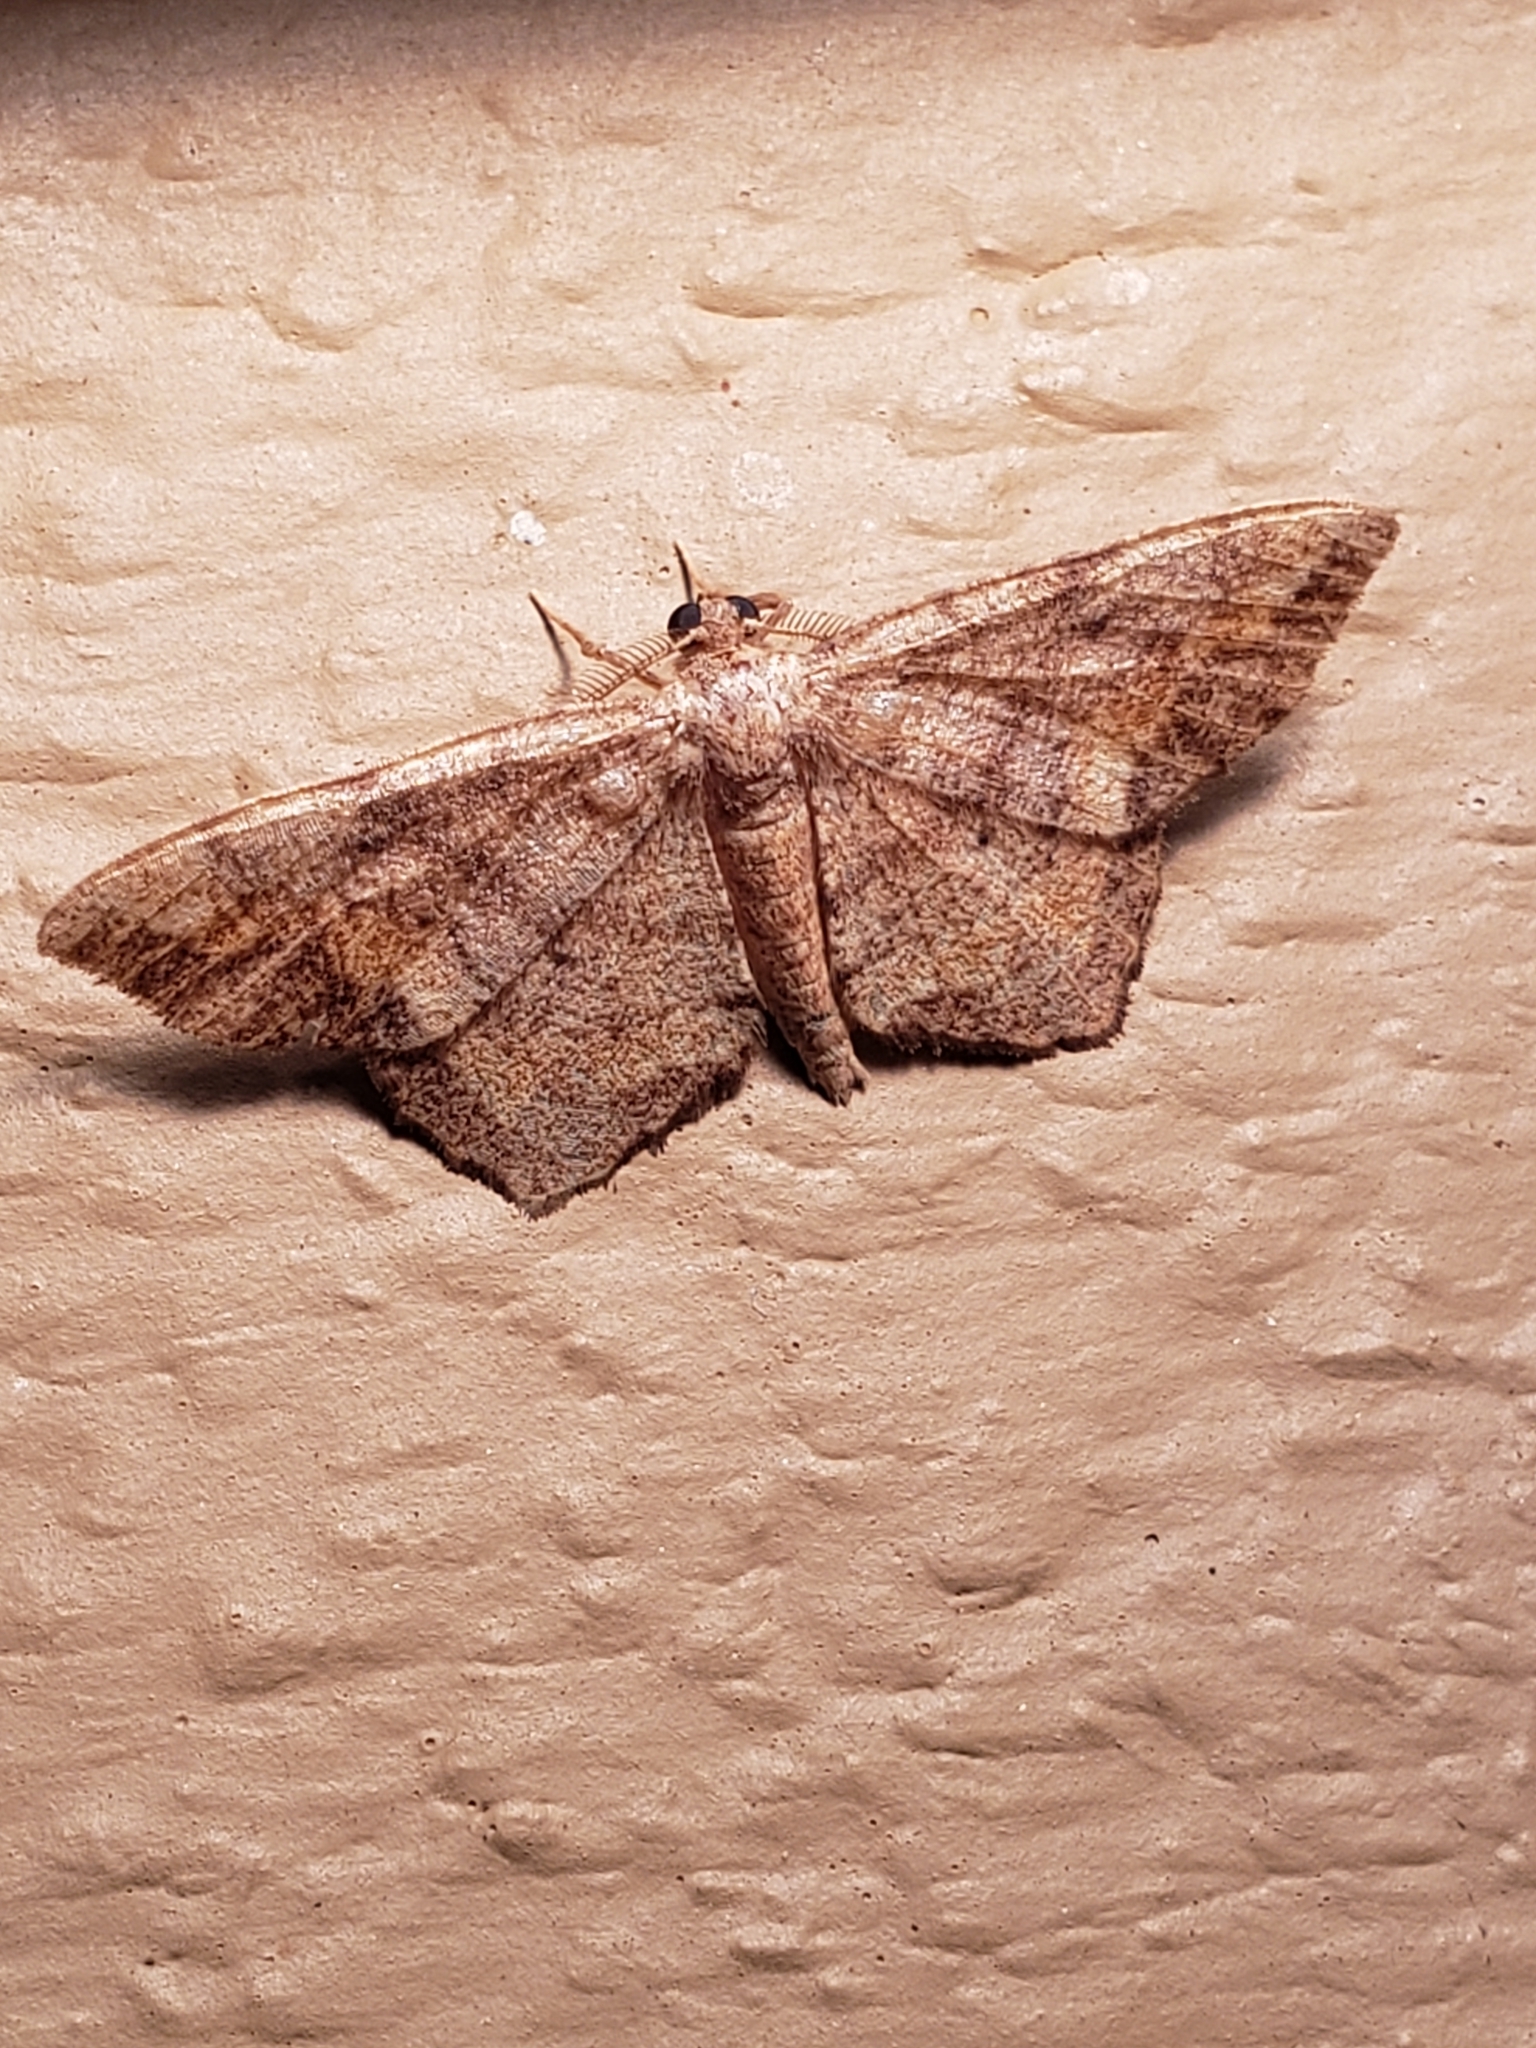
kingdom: Animalia
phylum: Arthropoda
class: Insecta
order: Lepidoptera
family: Geometridae
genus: Hypagyrtis
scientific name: Hypagyrtis unipunctata
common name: One-spotted variant
